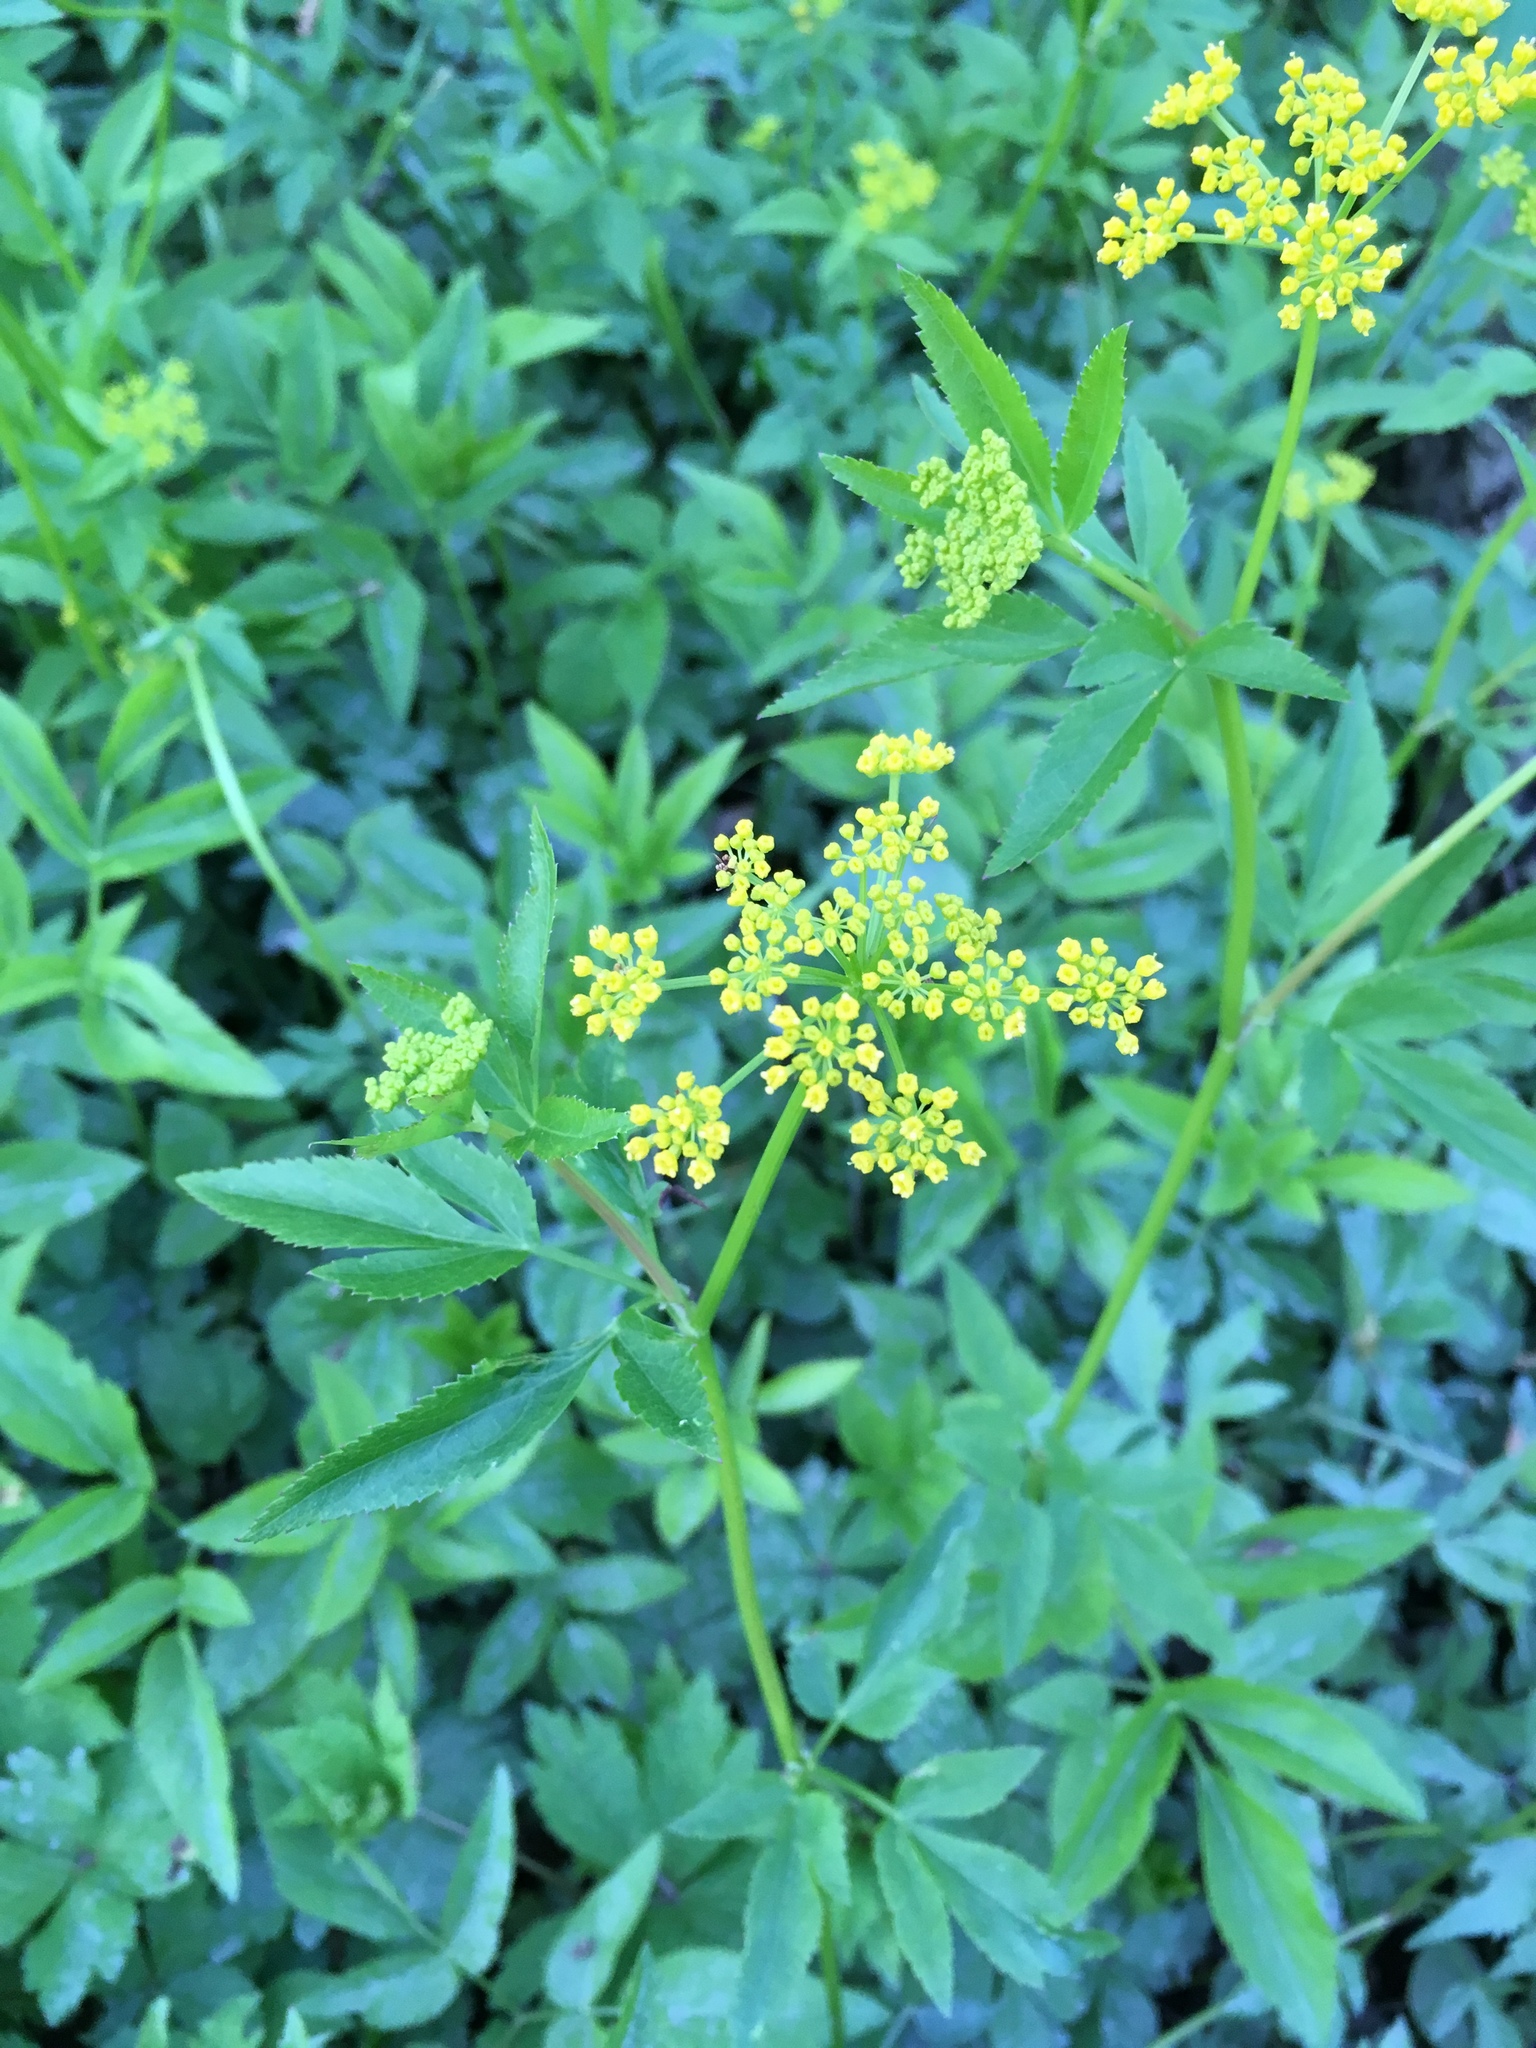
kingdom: Plantae
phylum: Tracheophyta
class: Magnoliopsida
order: Apiales
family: Apiaceae
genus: Zizia
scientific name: Zizia aurea
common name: Golden alexanders
